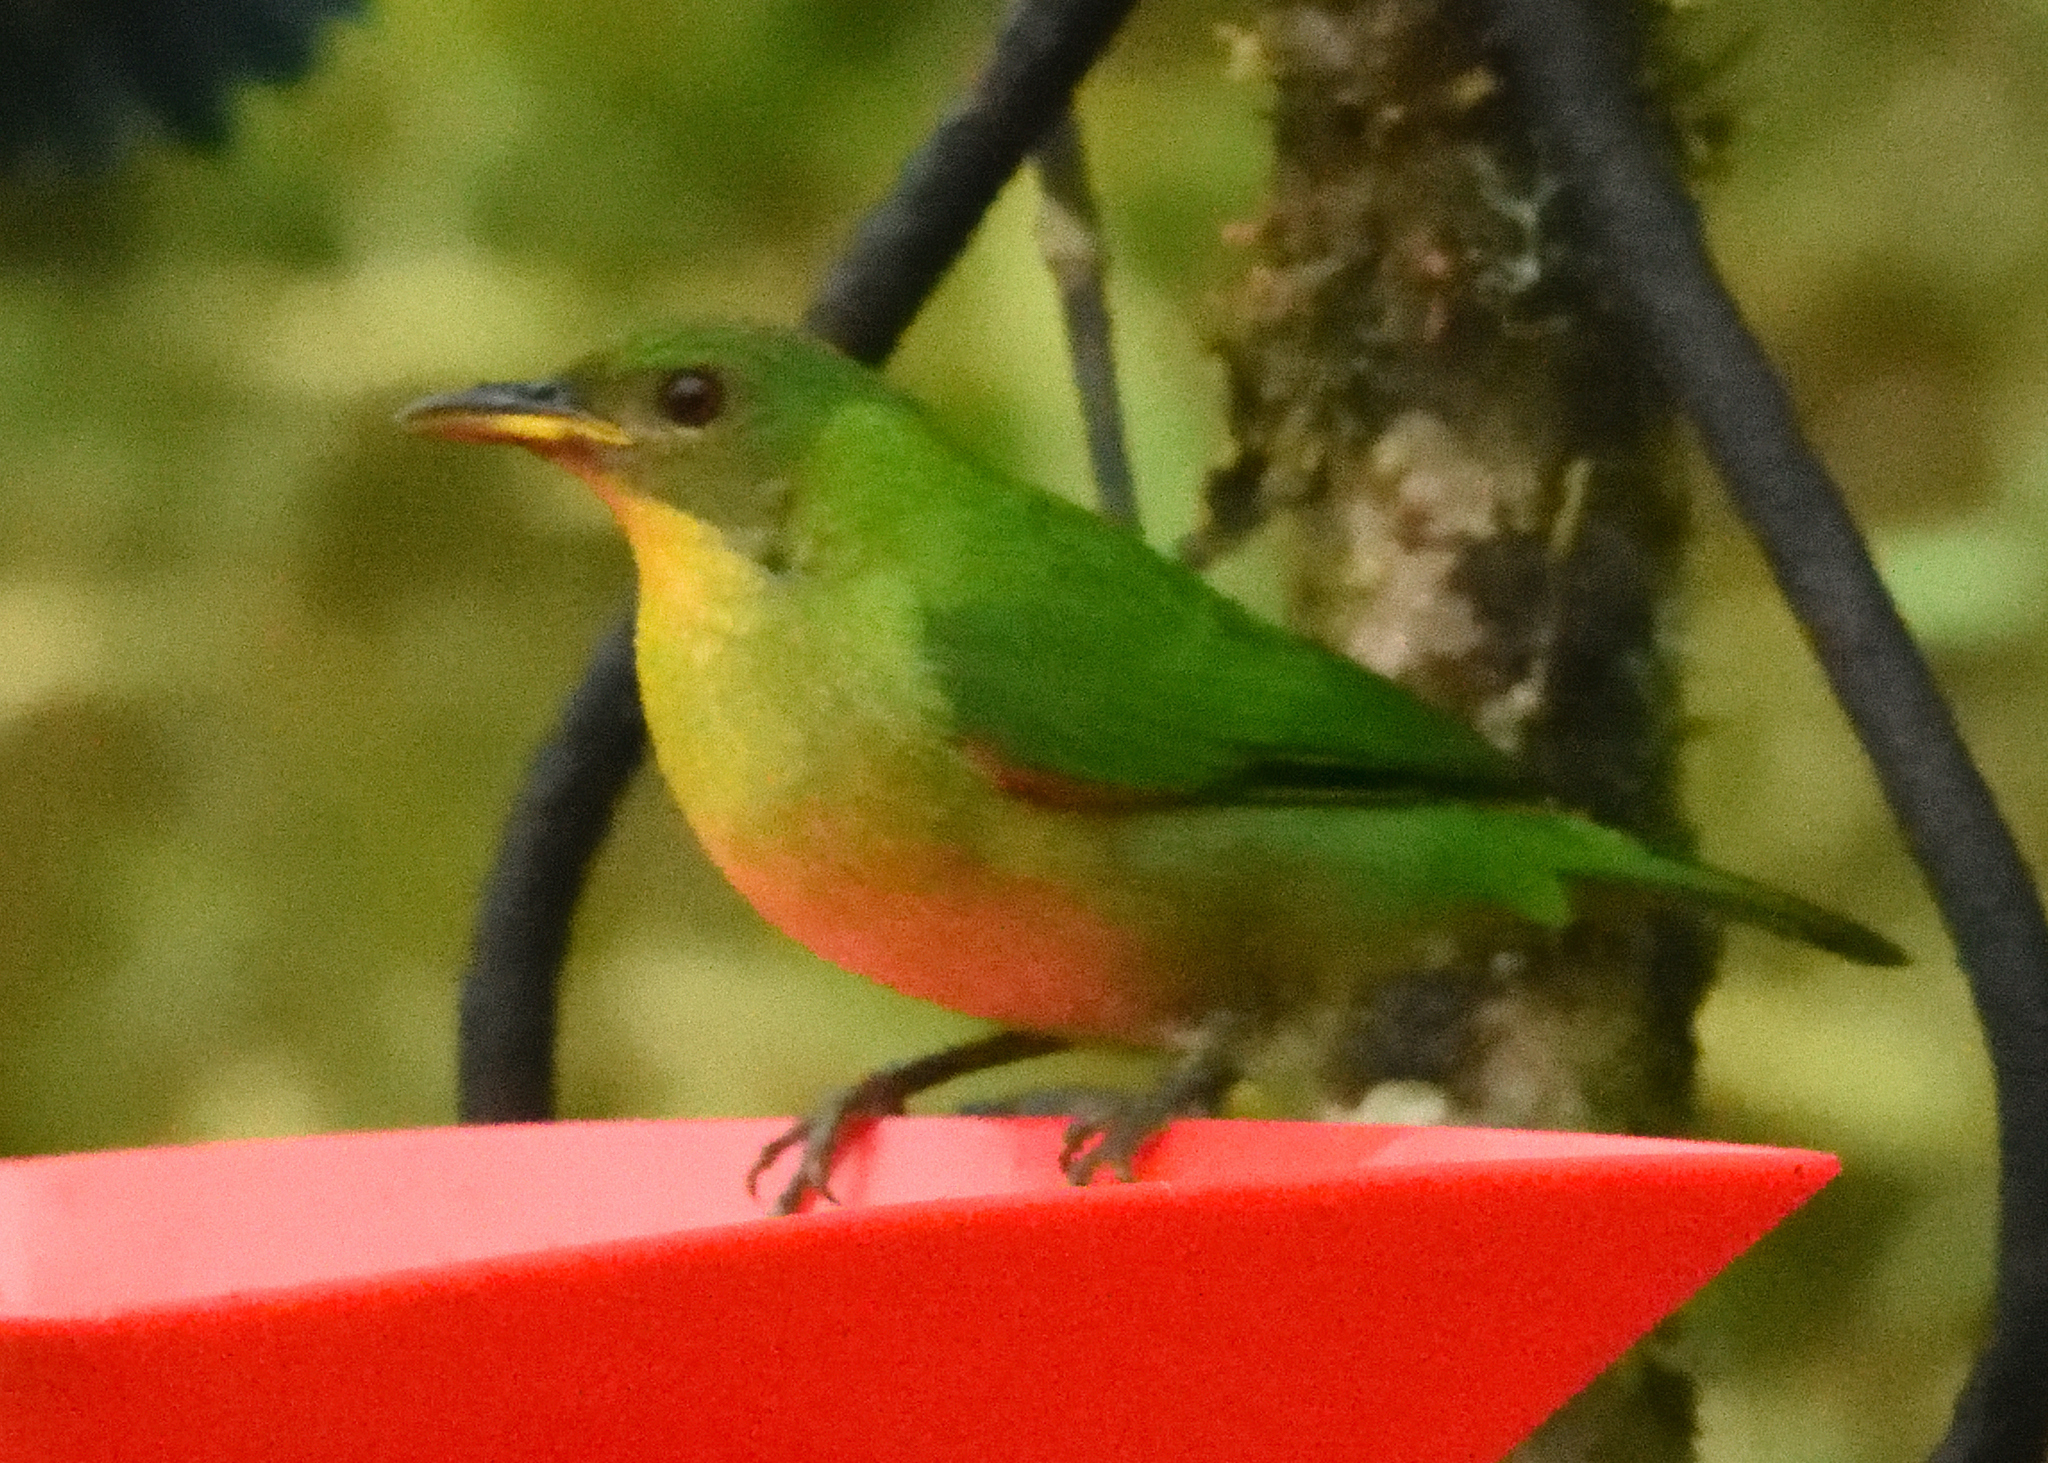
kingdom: Animalia
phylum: Chordata
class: Aves
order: Passeriformes
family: Thraupidae
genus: Chlorophanes
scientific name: Chlorophanes spiza
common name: Green honeycreeper
